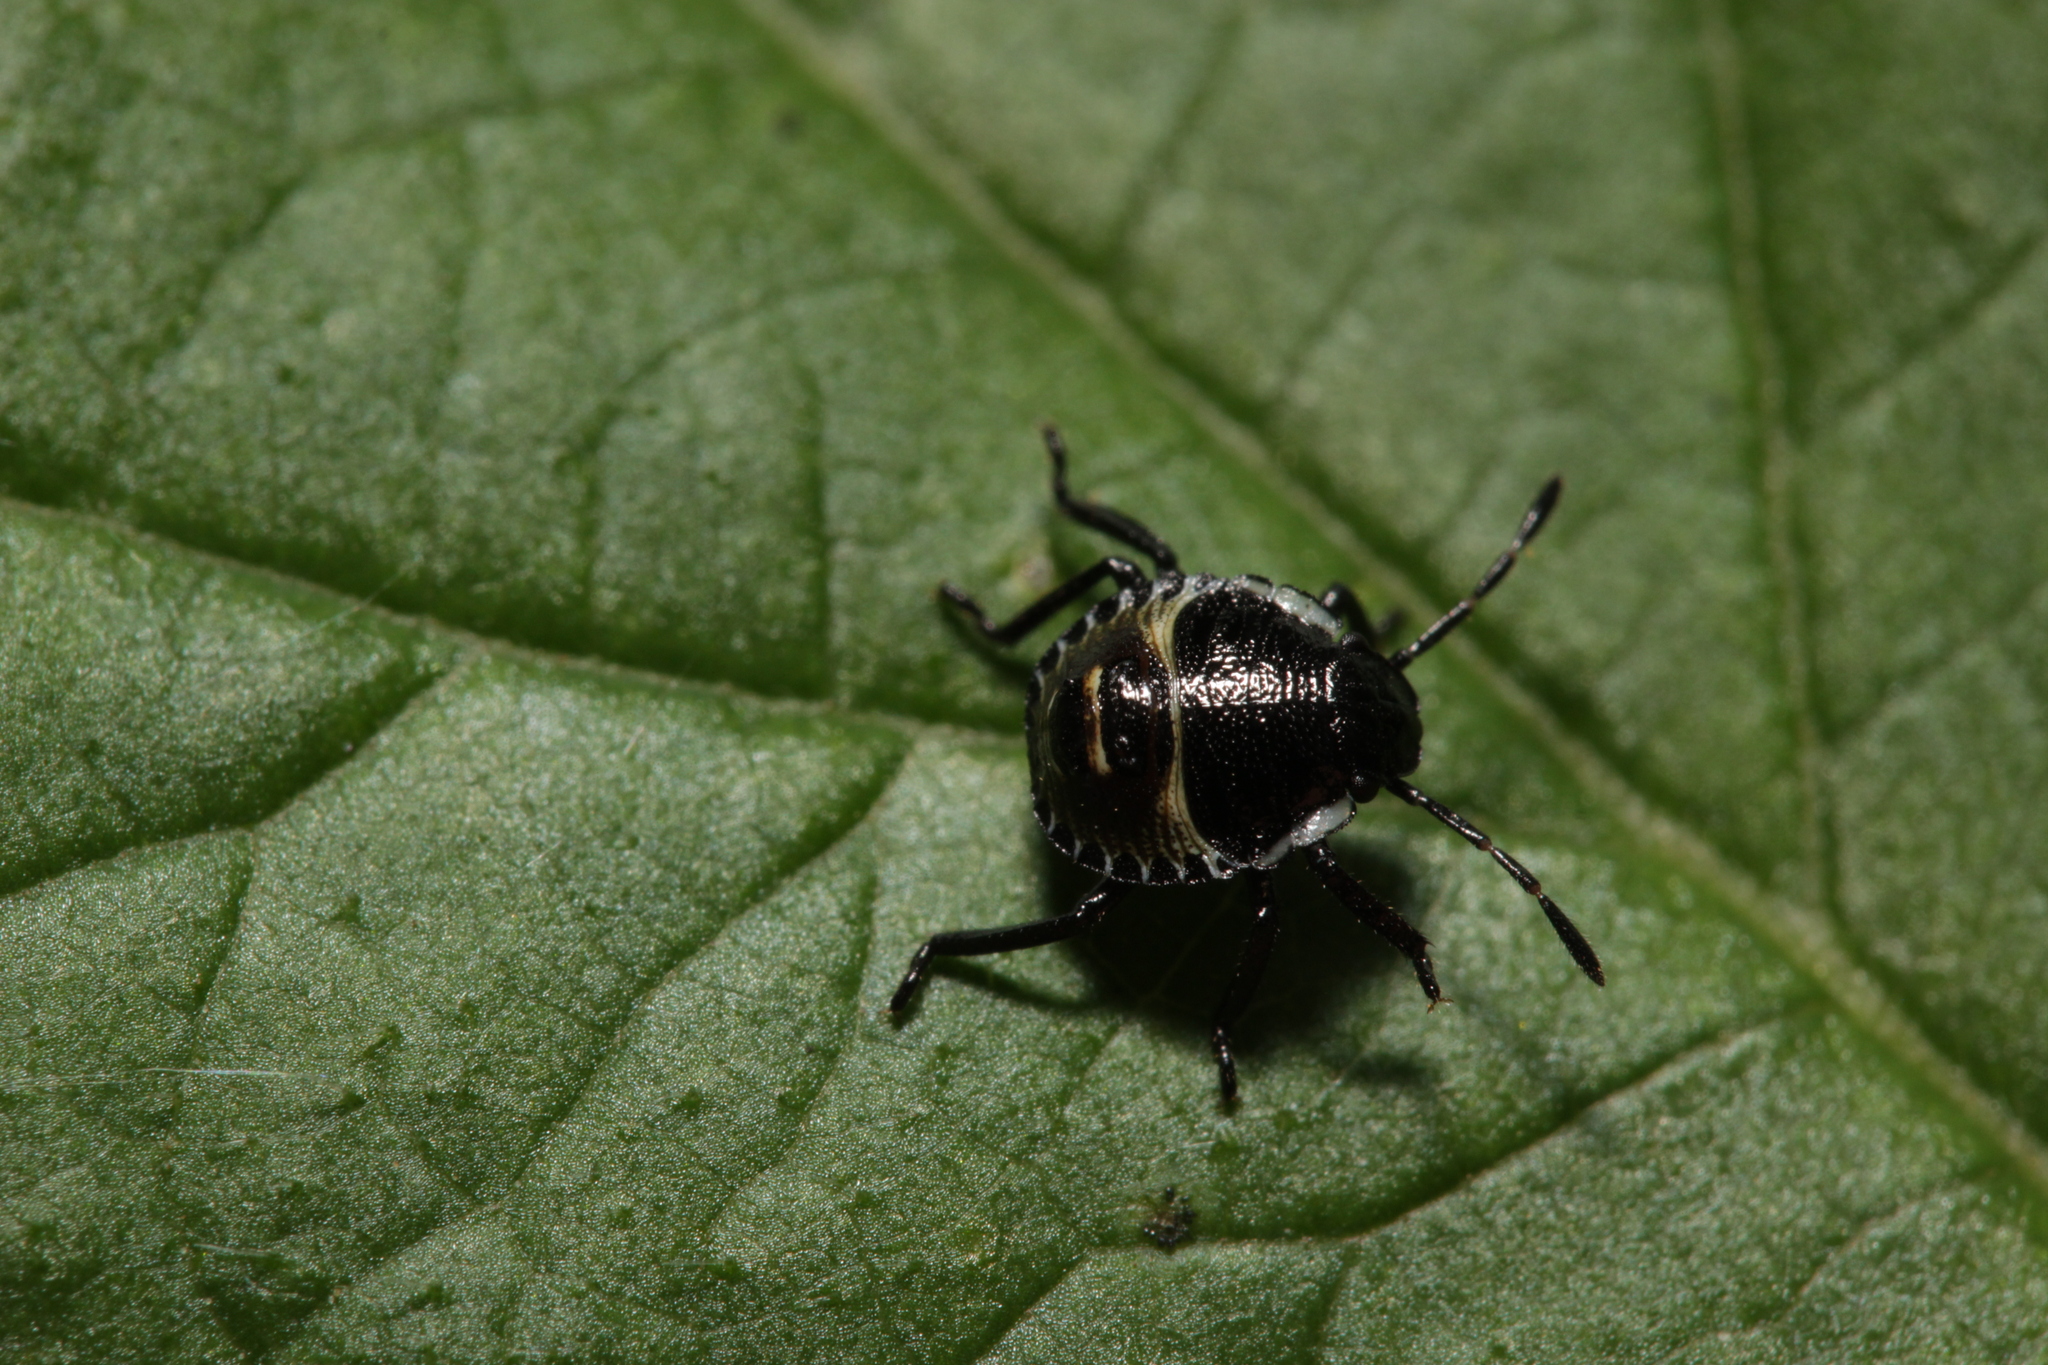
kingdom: Animalia
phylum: Arthropoda
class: Insecta
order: Hemiptera
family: Pentatomidae
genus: Palomena
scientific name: Palomena prasina
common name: Green shieldbug
